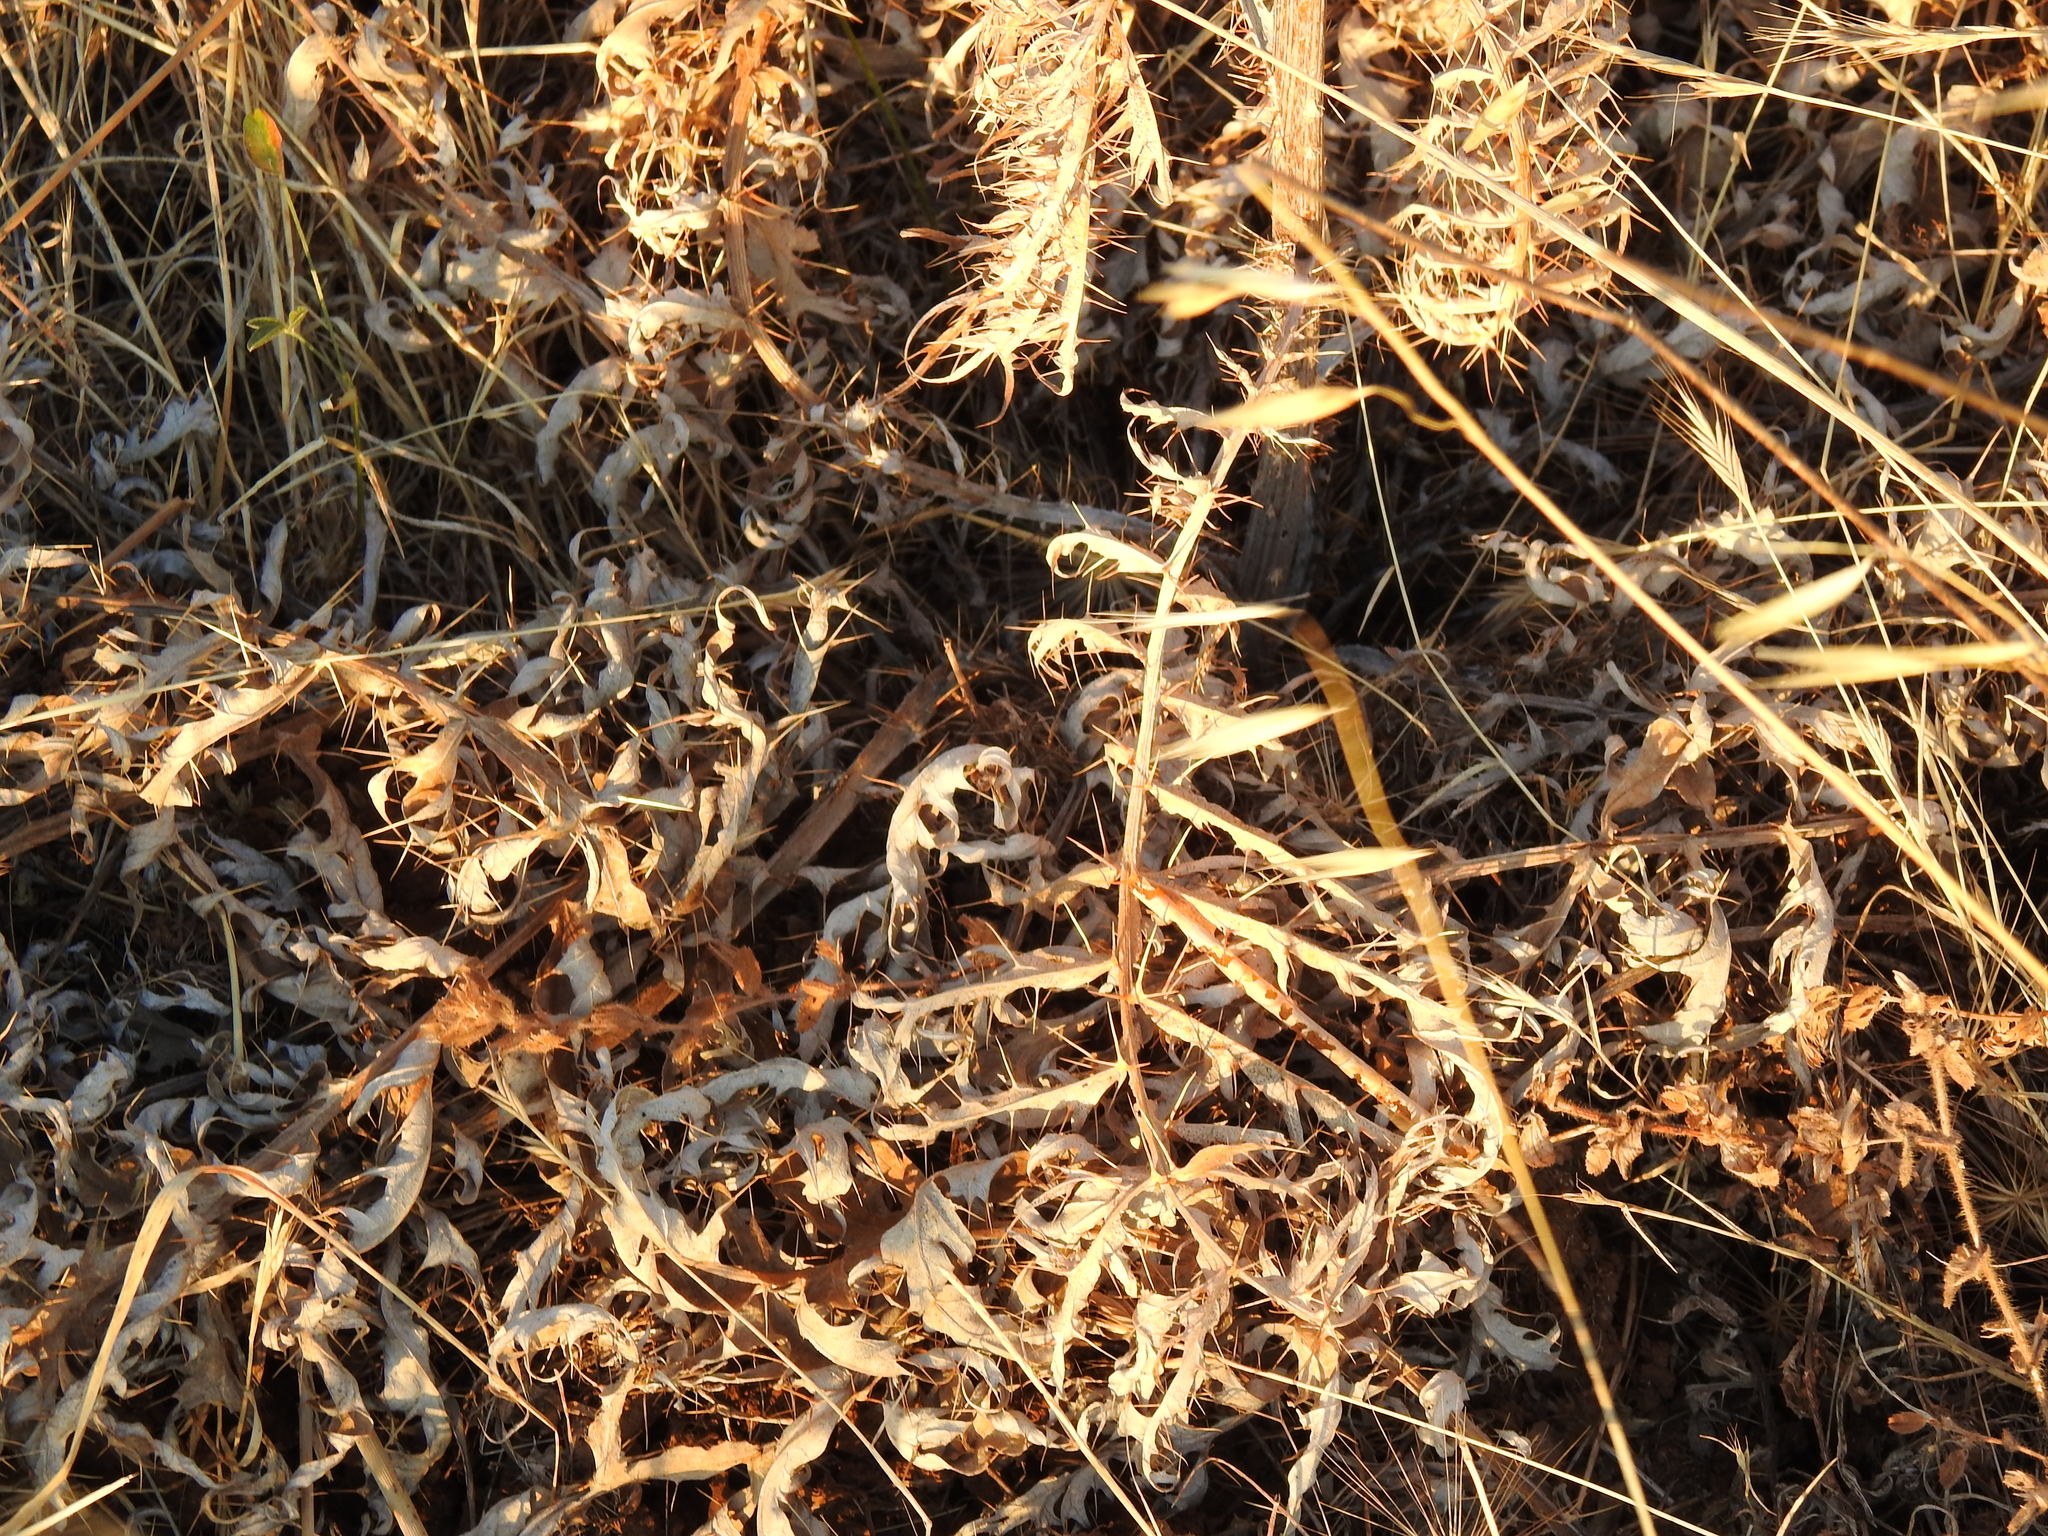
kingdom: Plantae
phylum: Tracheophyta
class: Magnoliopsida
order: Asterales
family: Asteraceae
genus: Cynara
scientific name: Cynara cardunculus
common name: Globe artichoke
